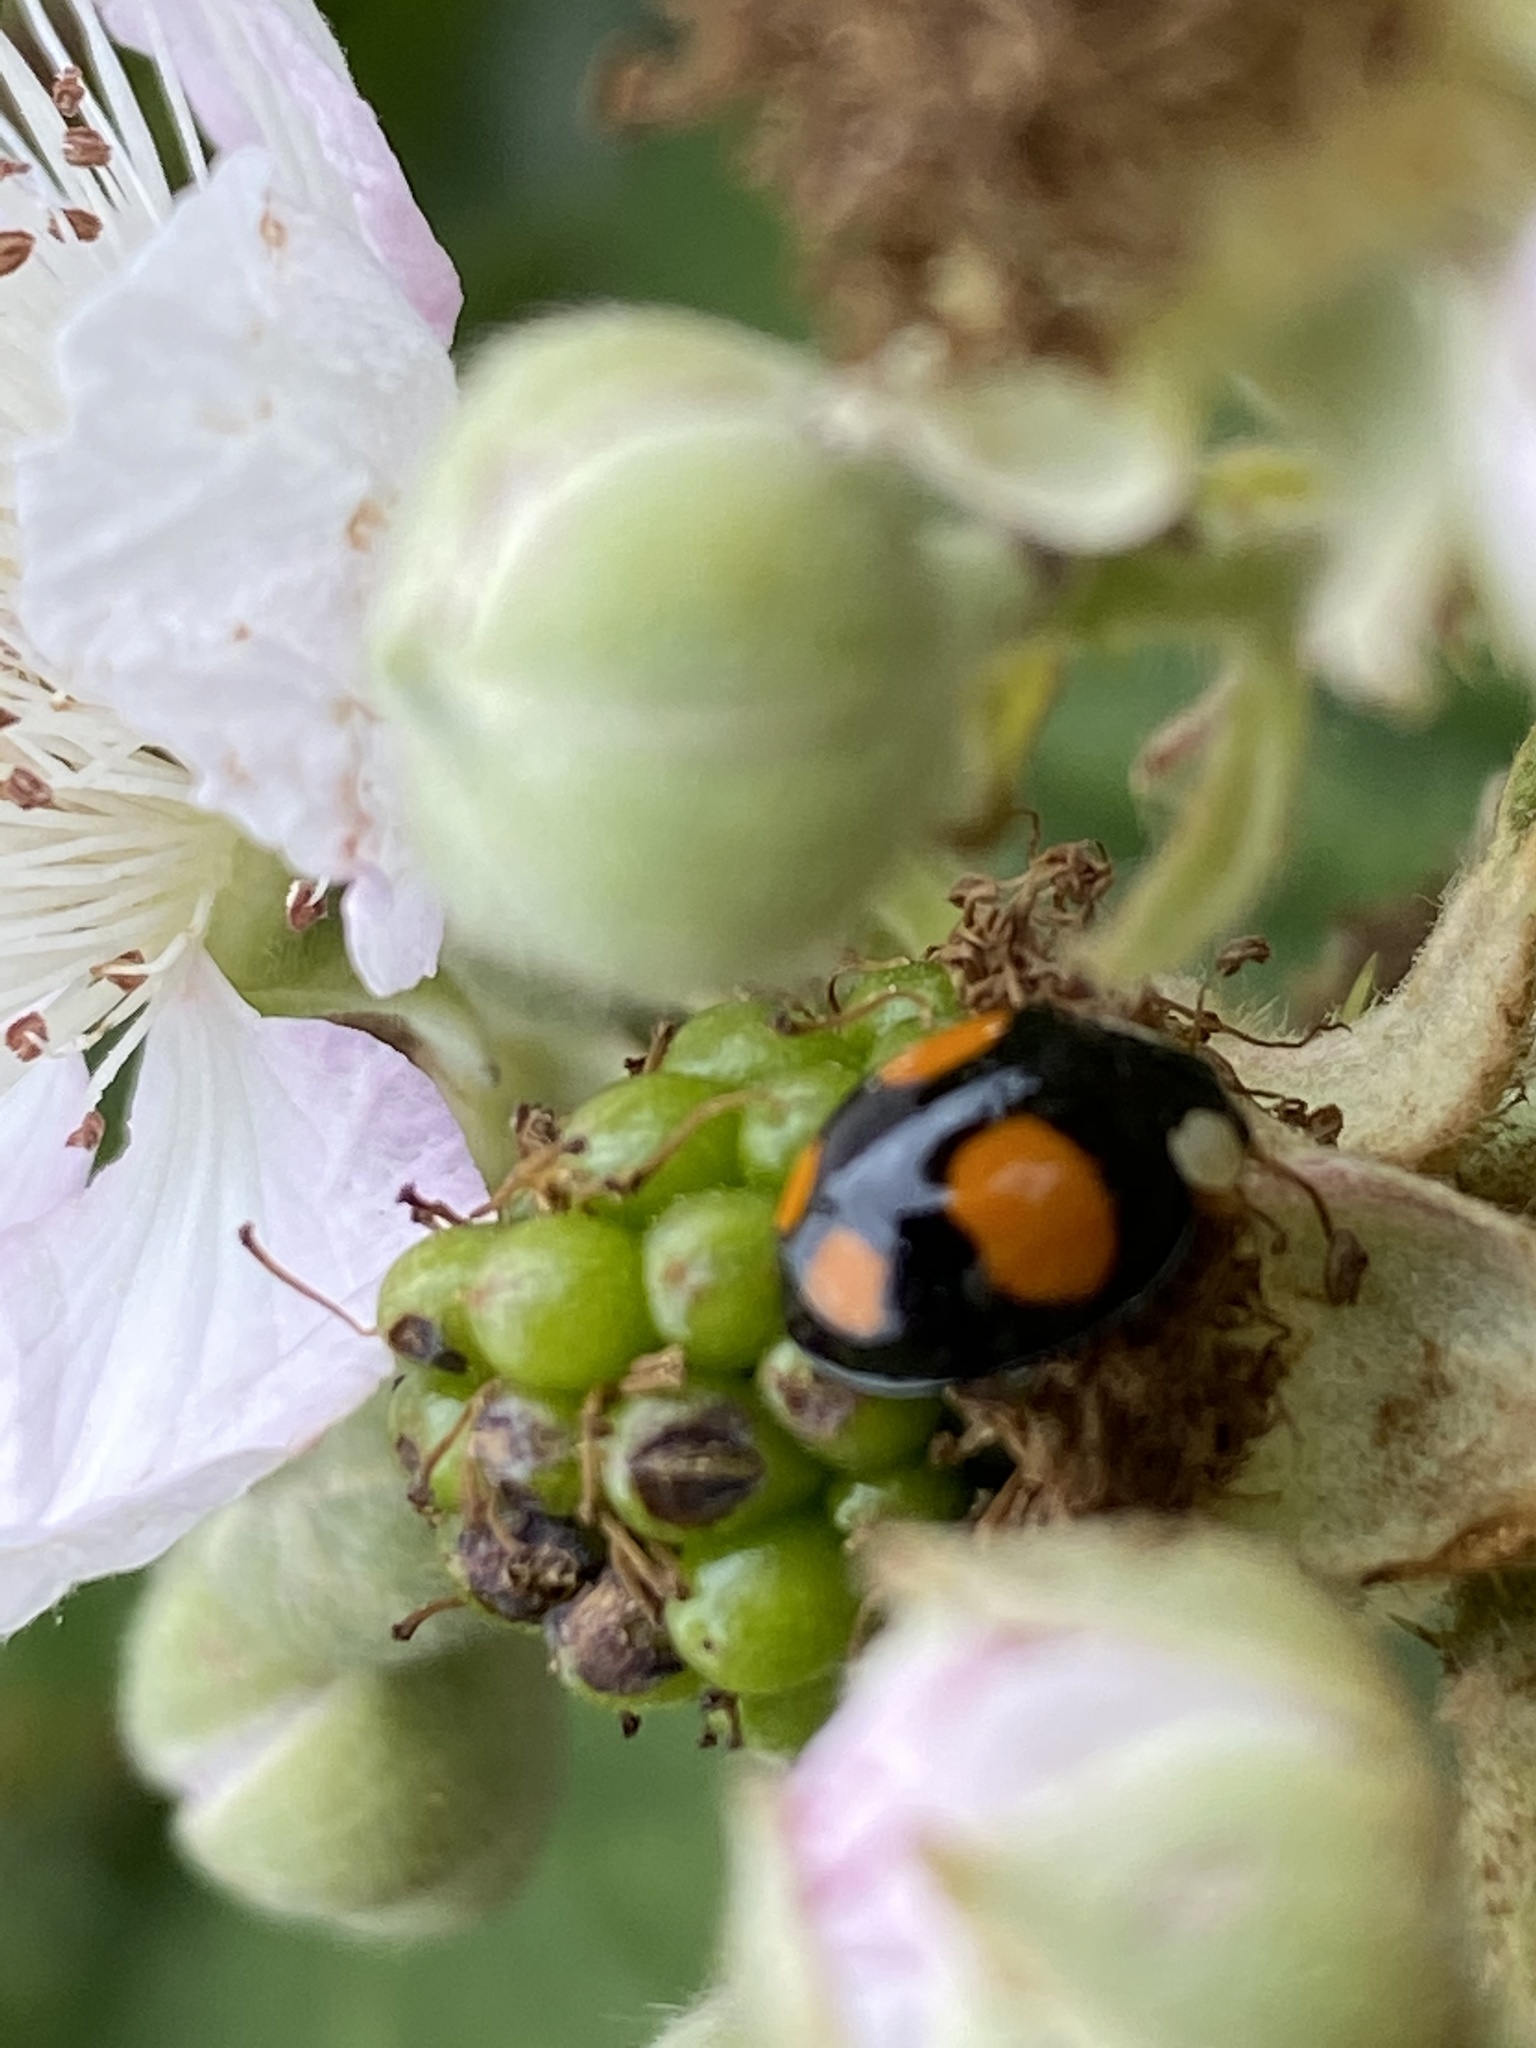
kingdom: Animalia
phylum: Arthropoda
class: Insecta
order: Coleoptera
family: Coccinellidae
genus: Harmonia
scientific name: Harmonia axyridis
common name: Harlequin ladybird
